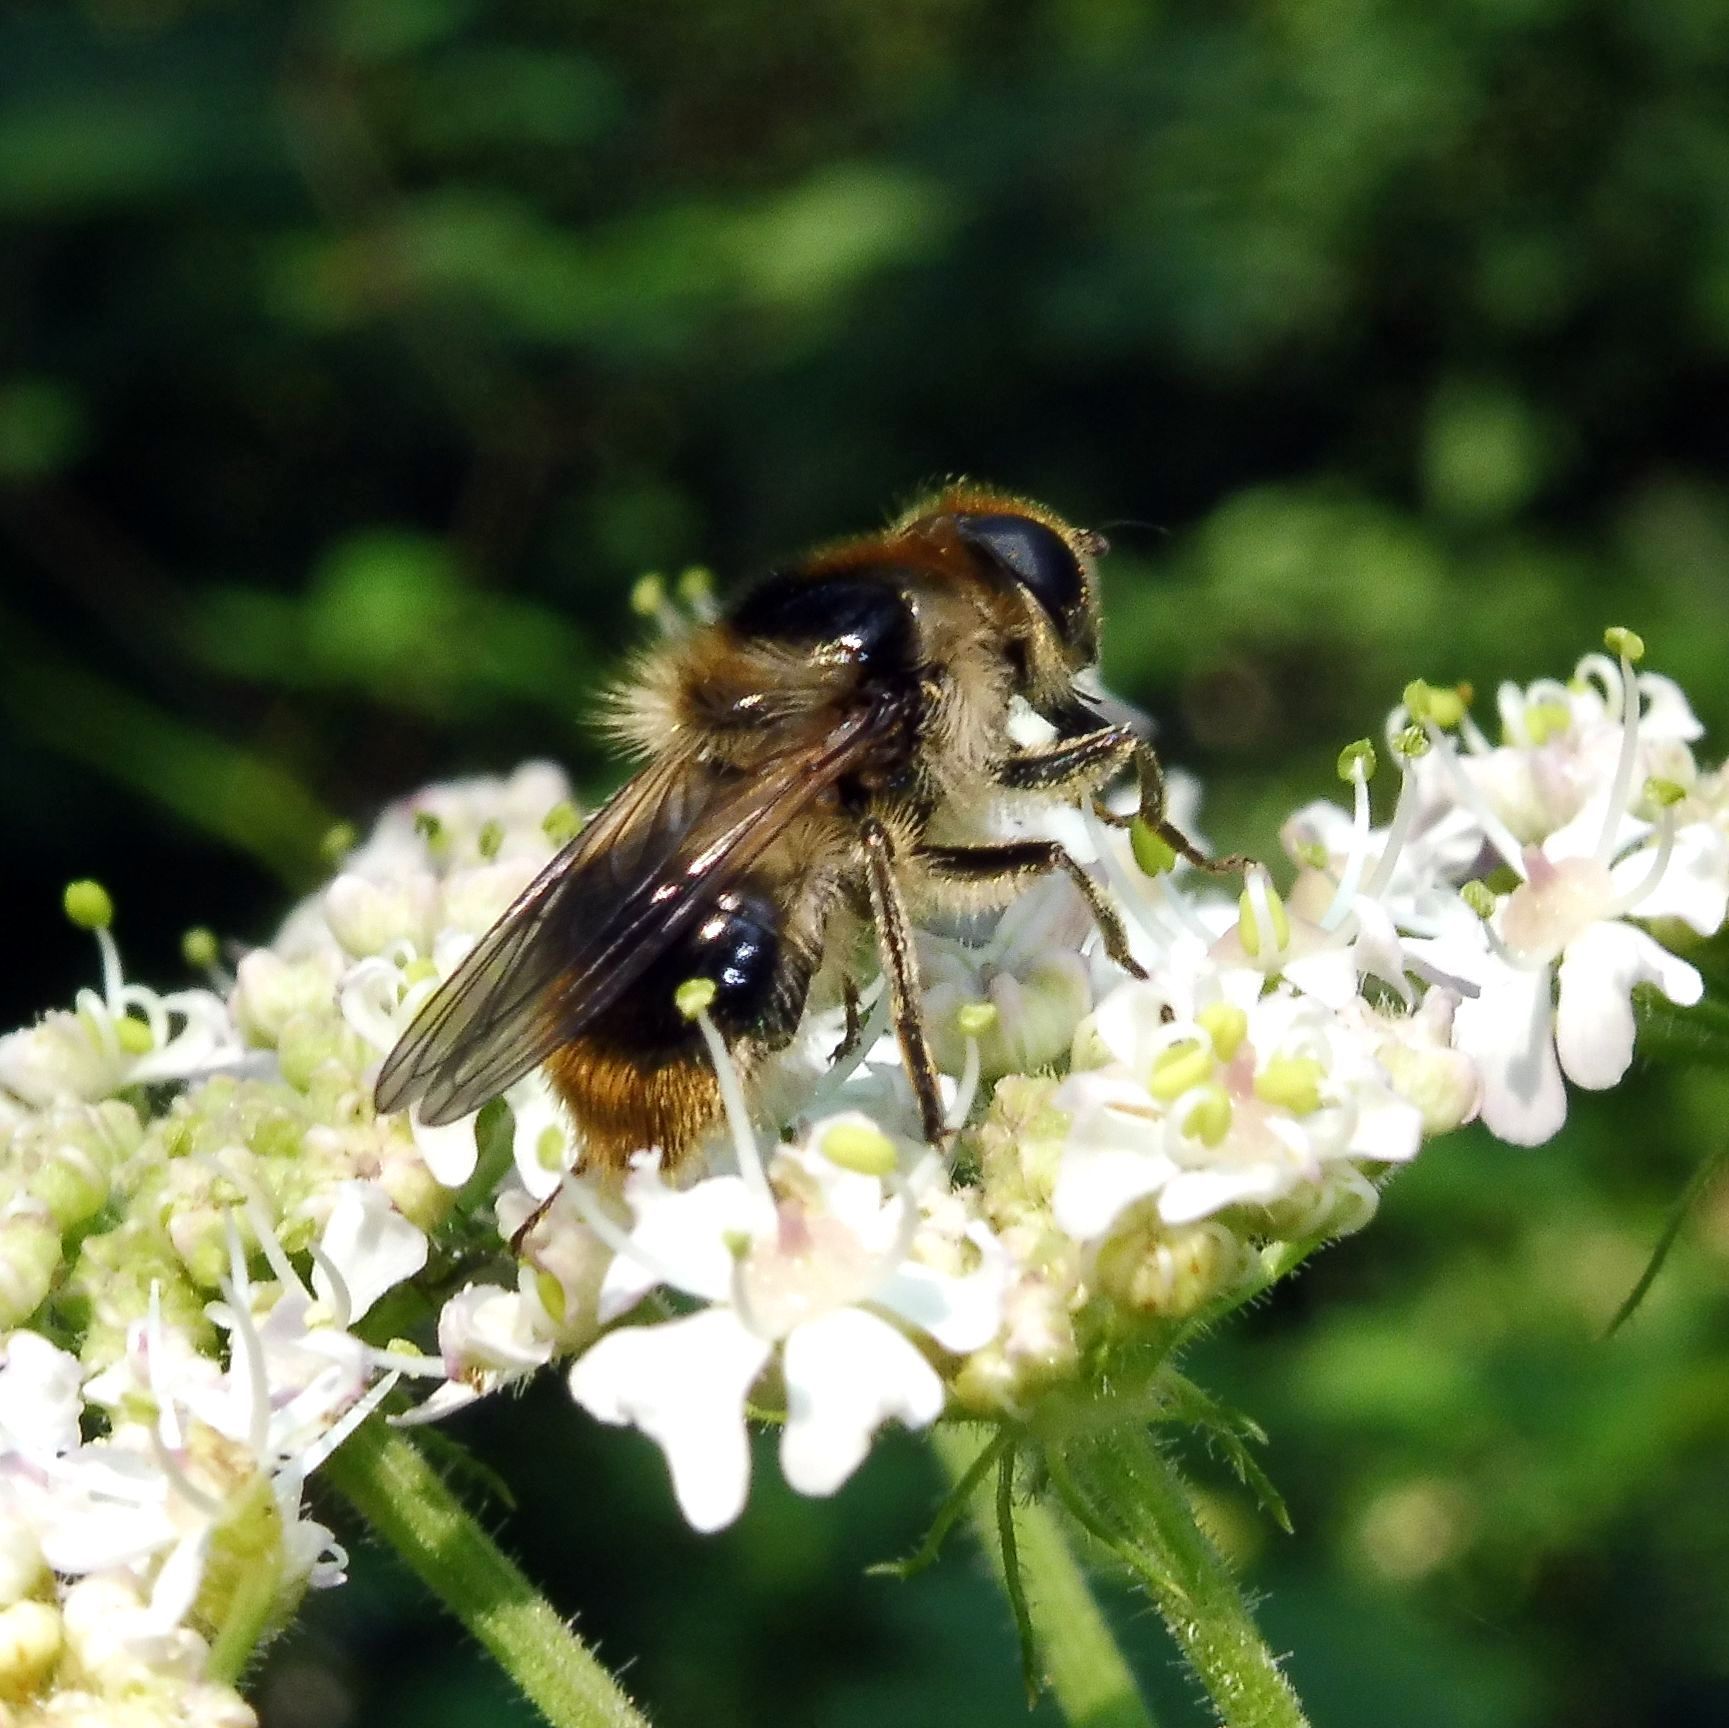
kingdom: Animalia
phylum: Arthropoda
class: Insecta
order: Diptera
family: Syrphidae
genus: Cheilosia
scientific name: Cheilosia illustrata
